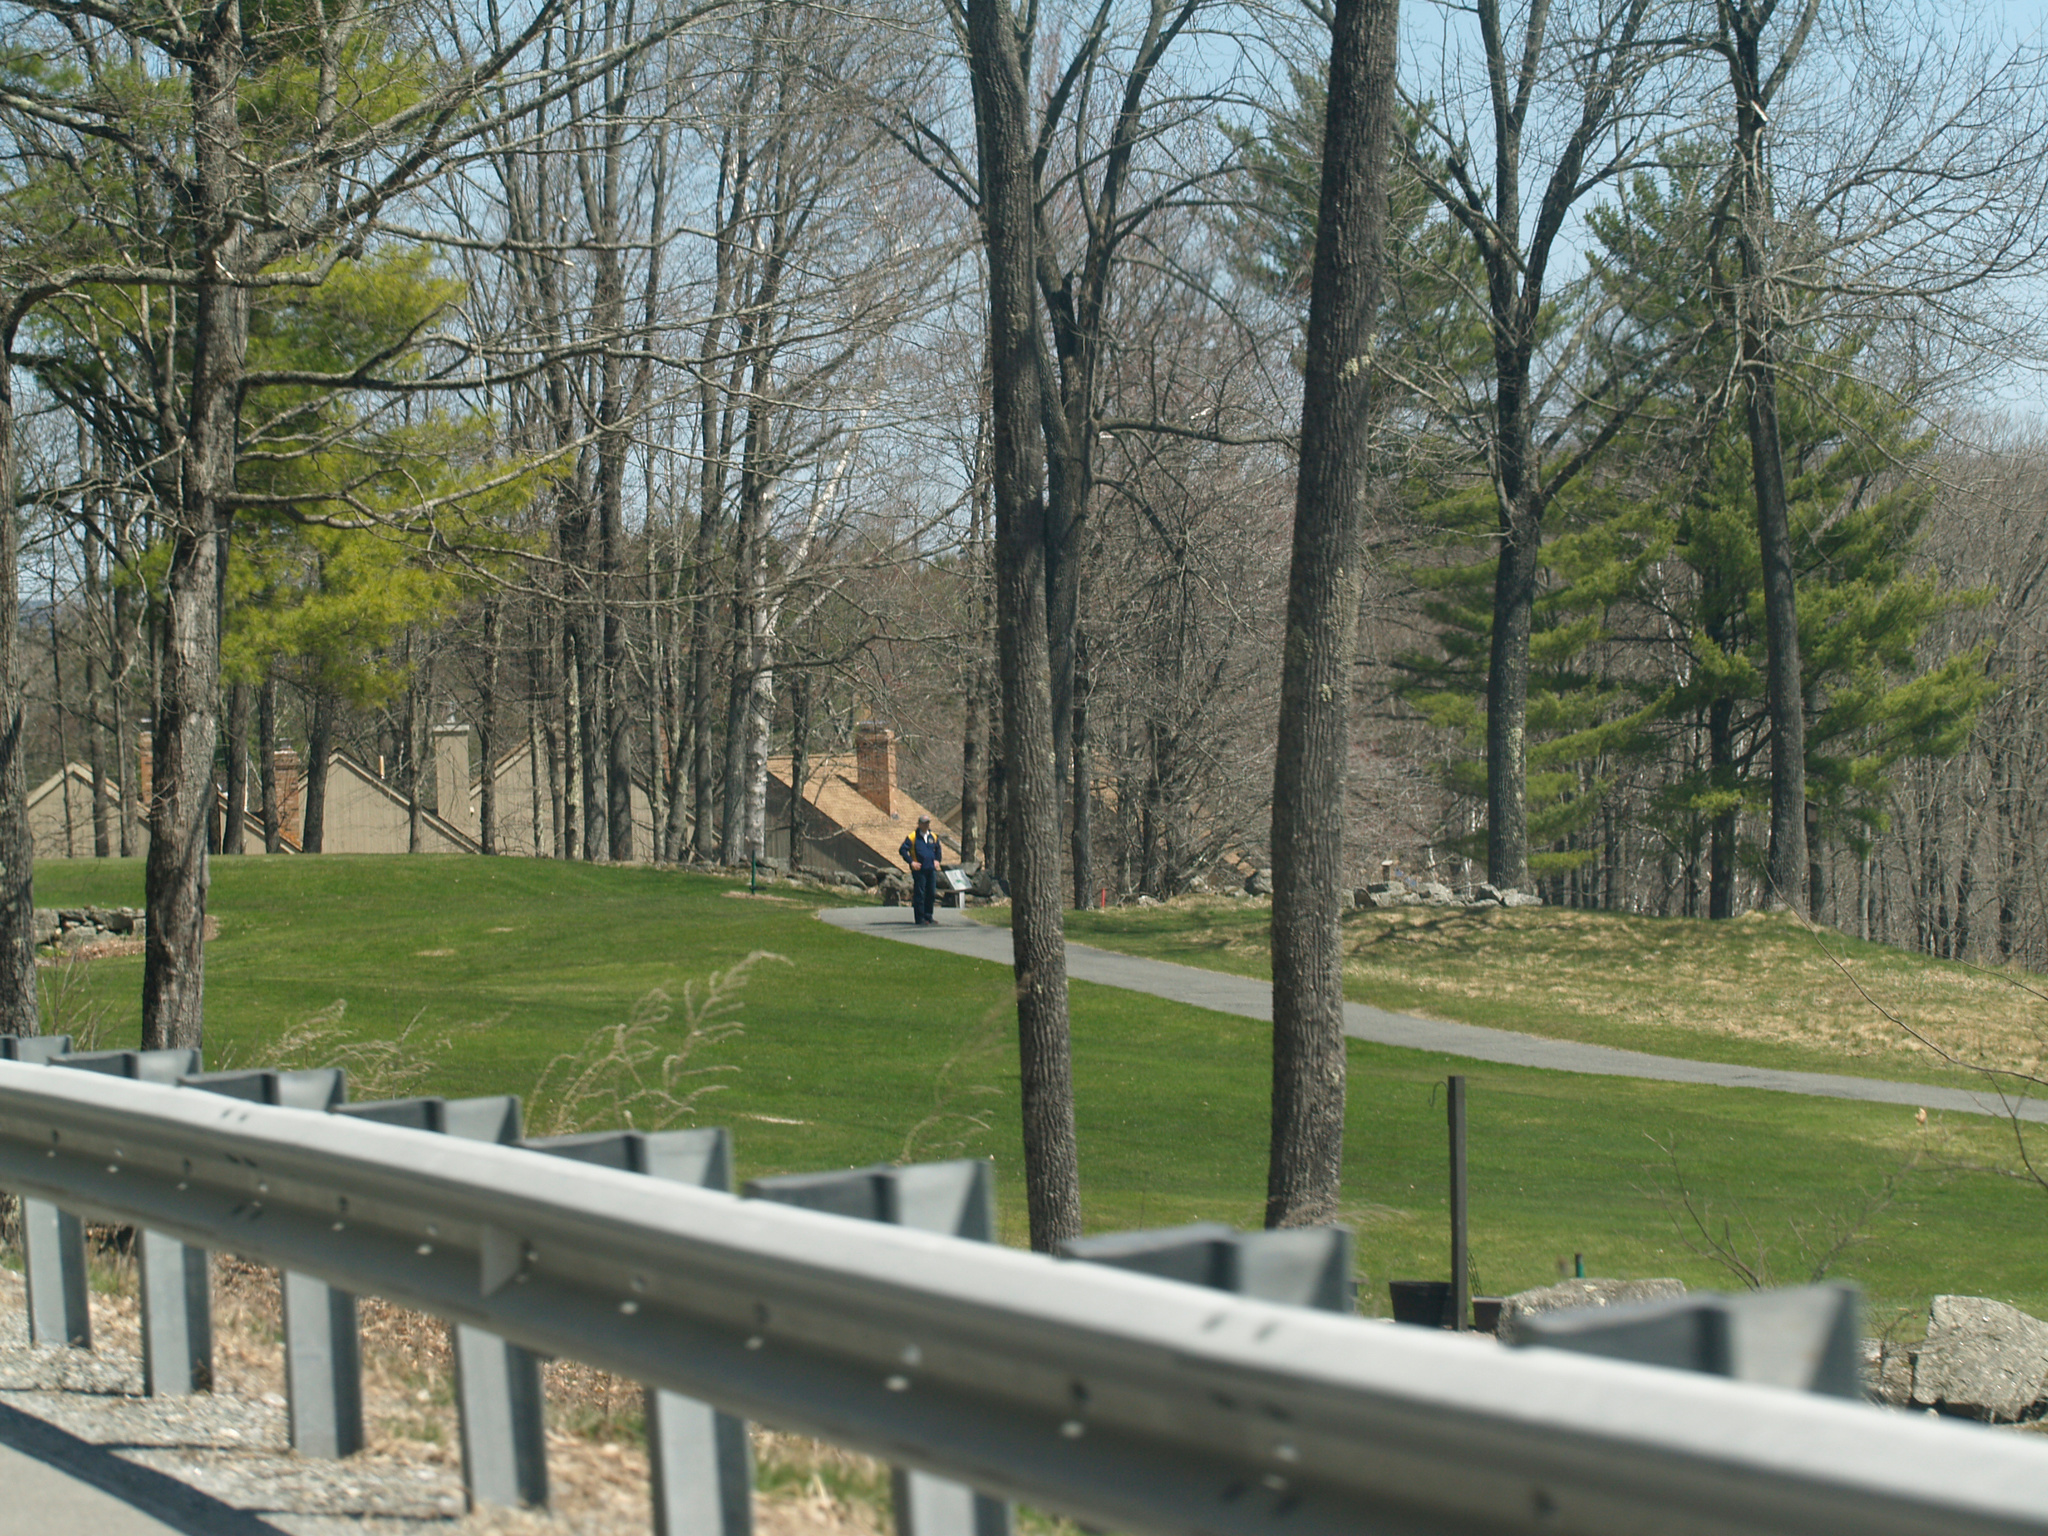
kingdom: Plantae
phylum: Tracheophyta
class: Pinopsida
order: Pinales
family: Pinaceae
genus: Pinus
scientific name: Pinus strobus
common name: Weymouth pine
